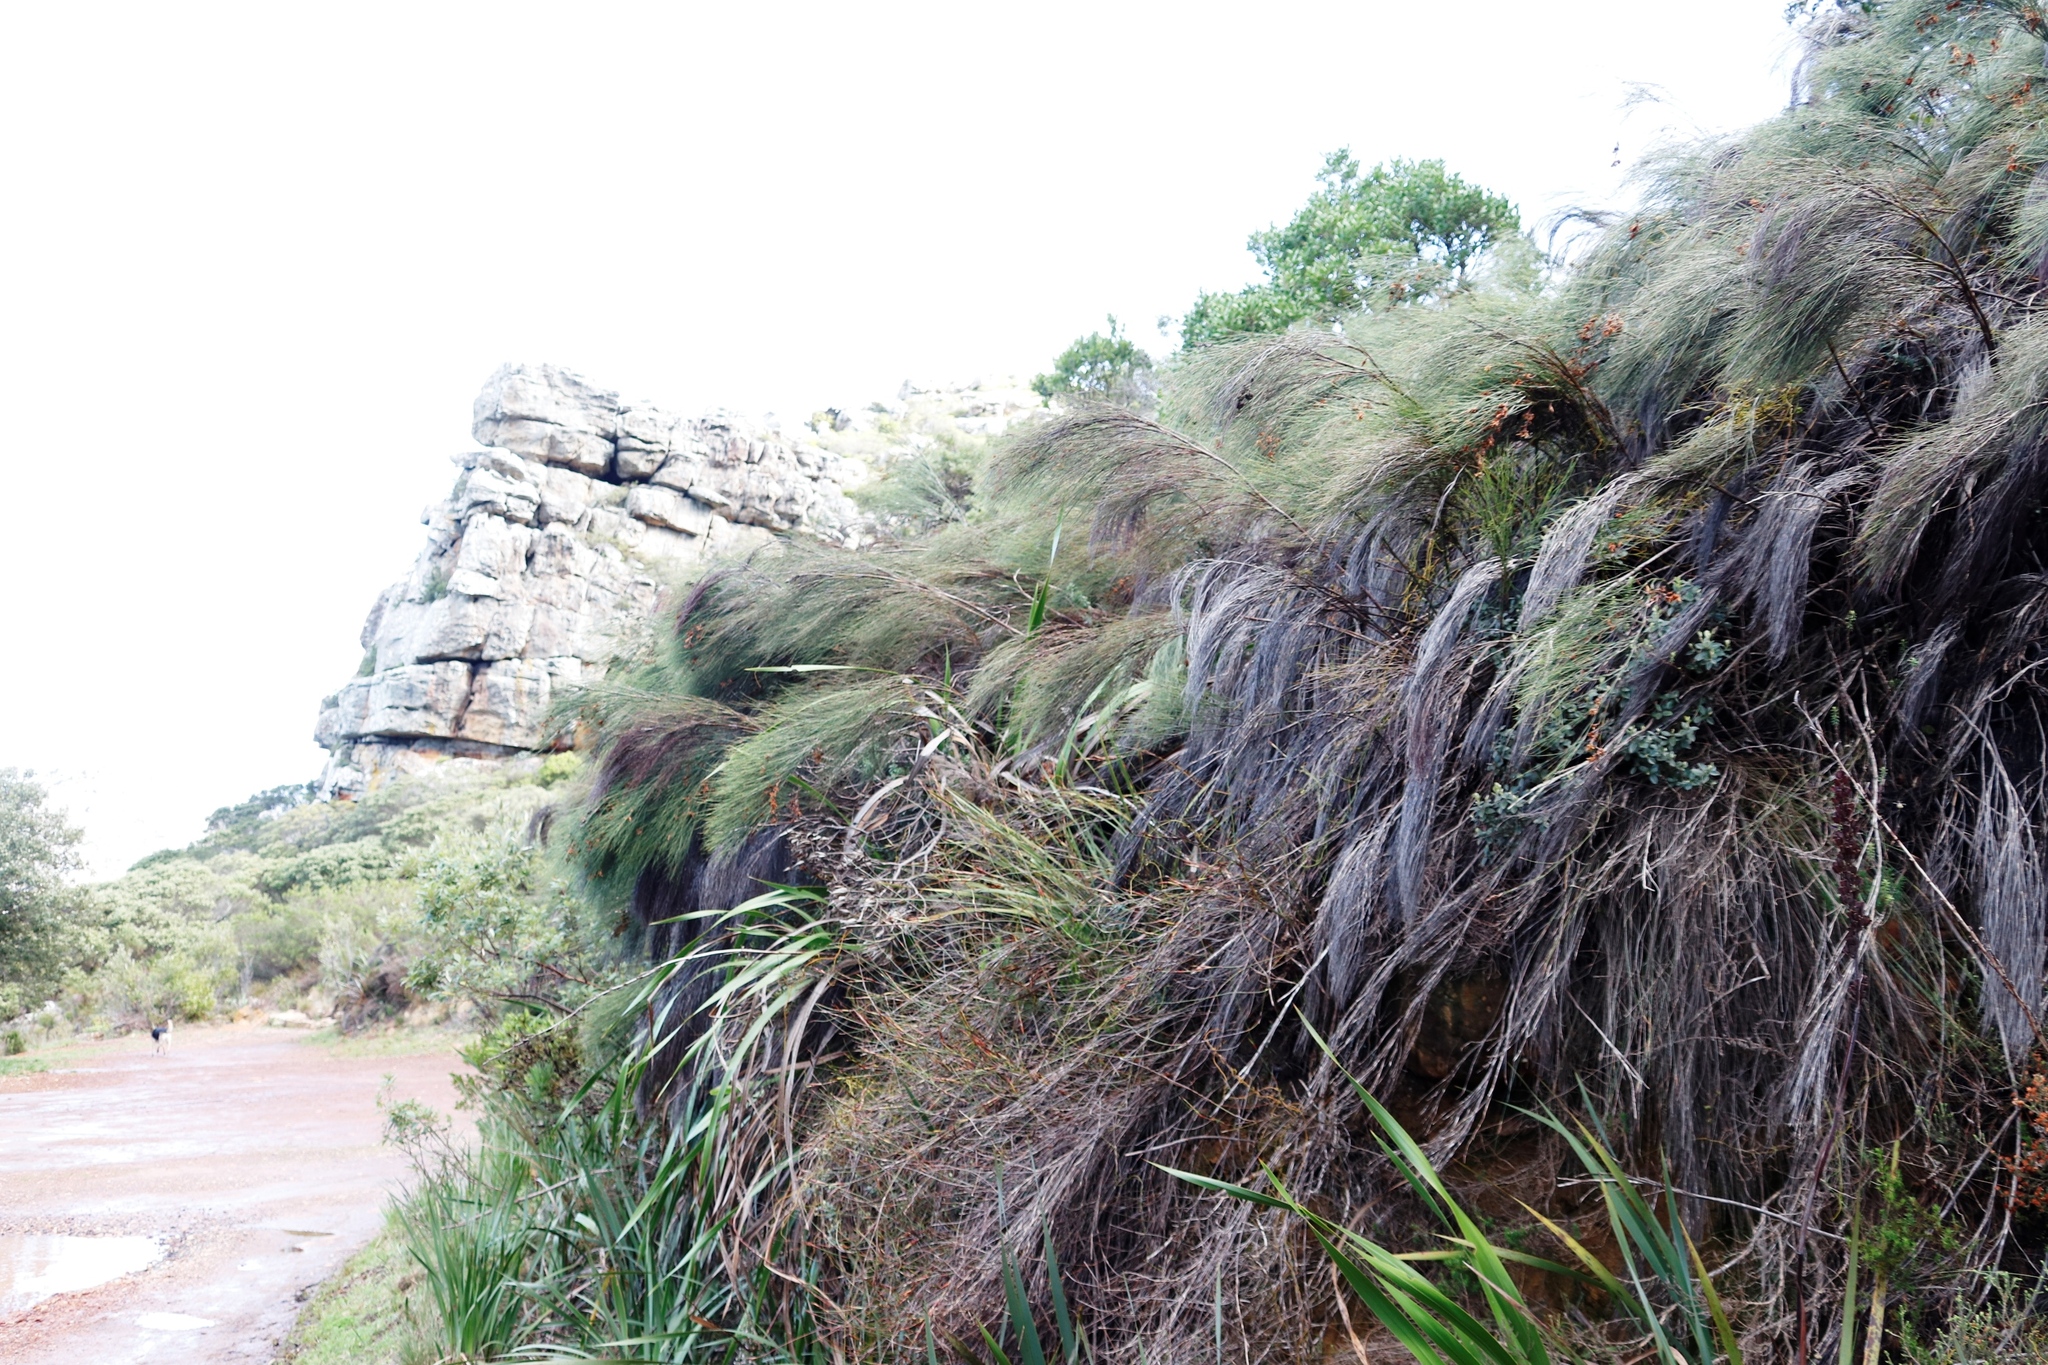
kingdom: Plantae
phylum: Tracheophyta
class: Liliopsida
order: Poales
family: Restionaceae
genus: Cannomois
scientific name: Cannomois virgata
